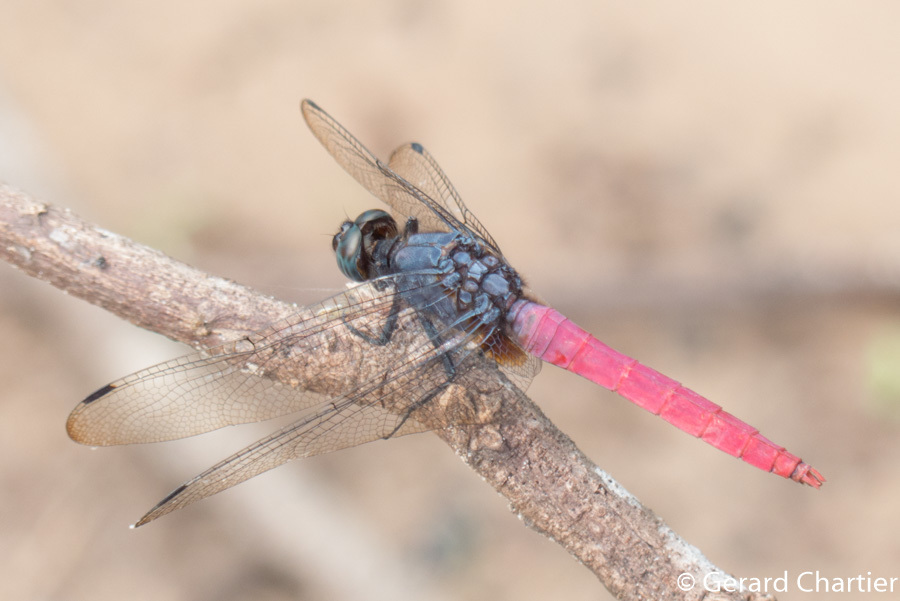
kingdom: Animalia
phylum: Arthropoda
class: Insecta
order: Odonata
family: Libellulidae
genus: Orthetrum
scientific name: Orthetrum pruinosum
